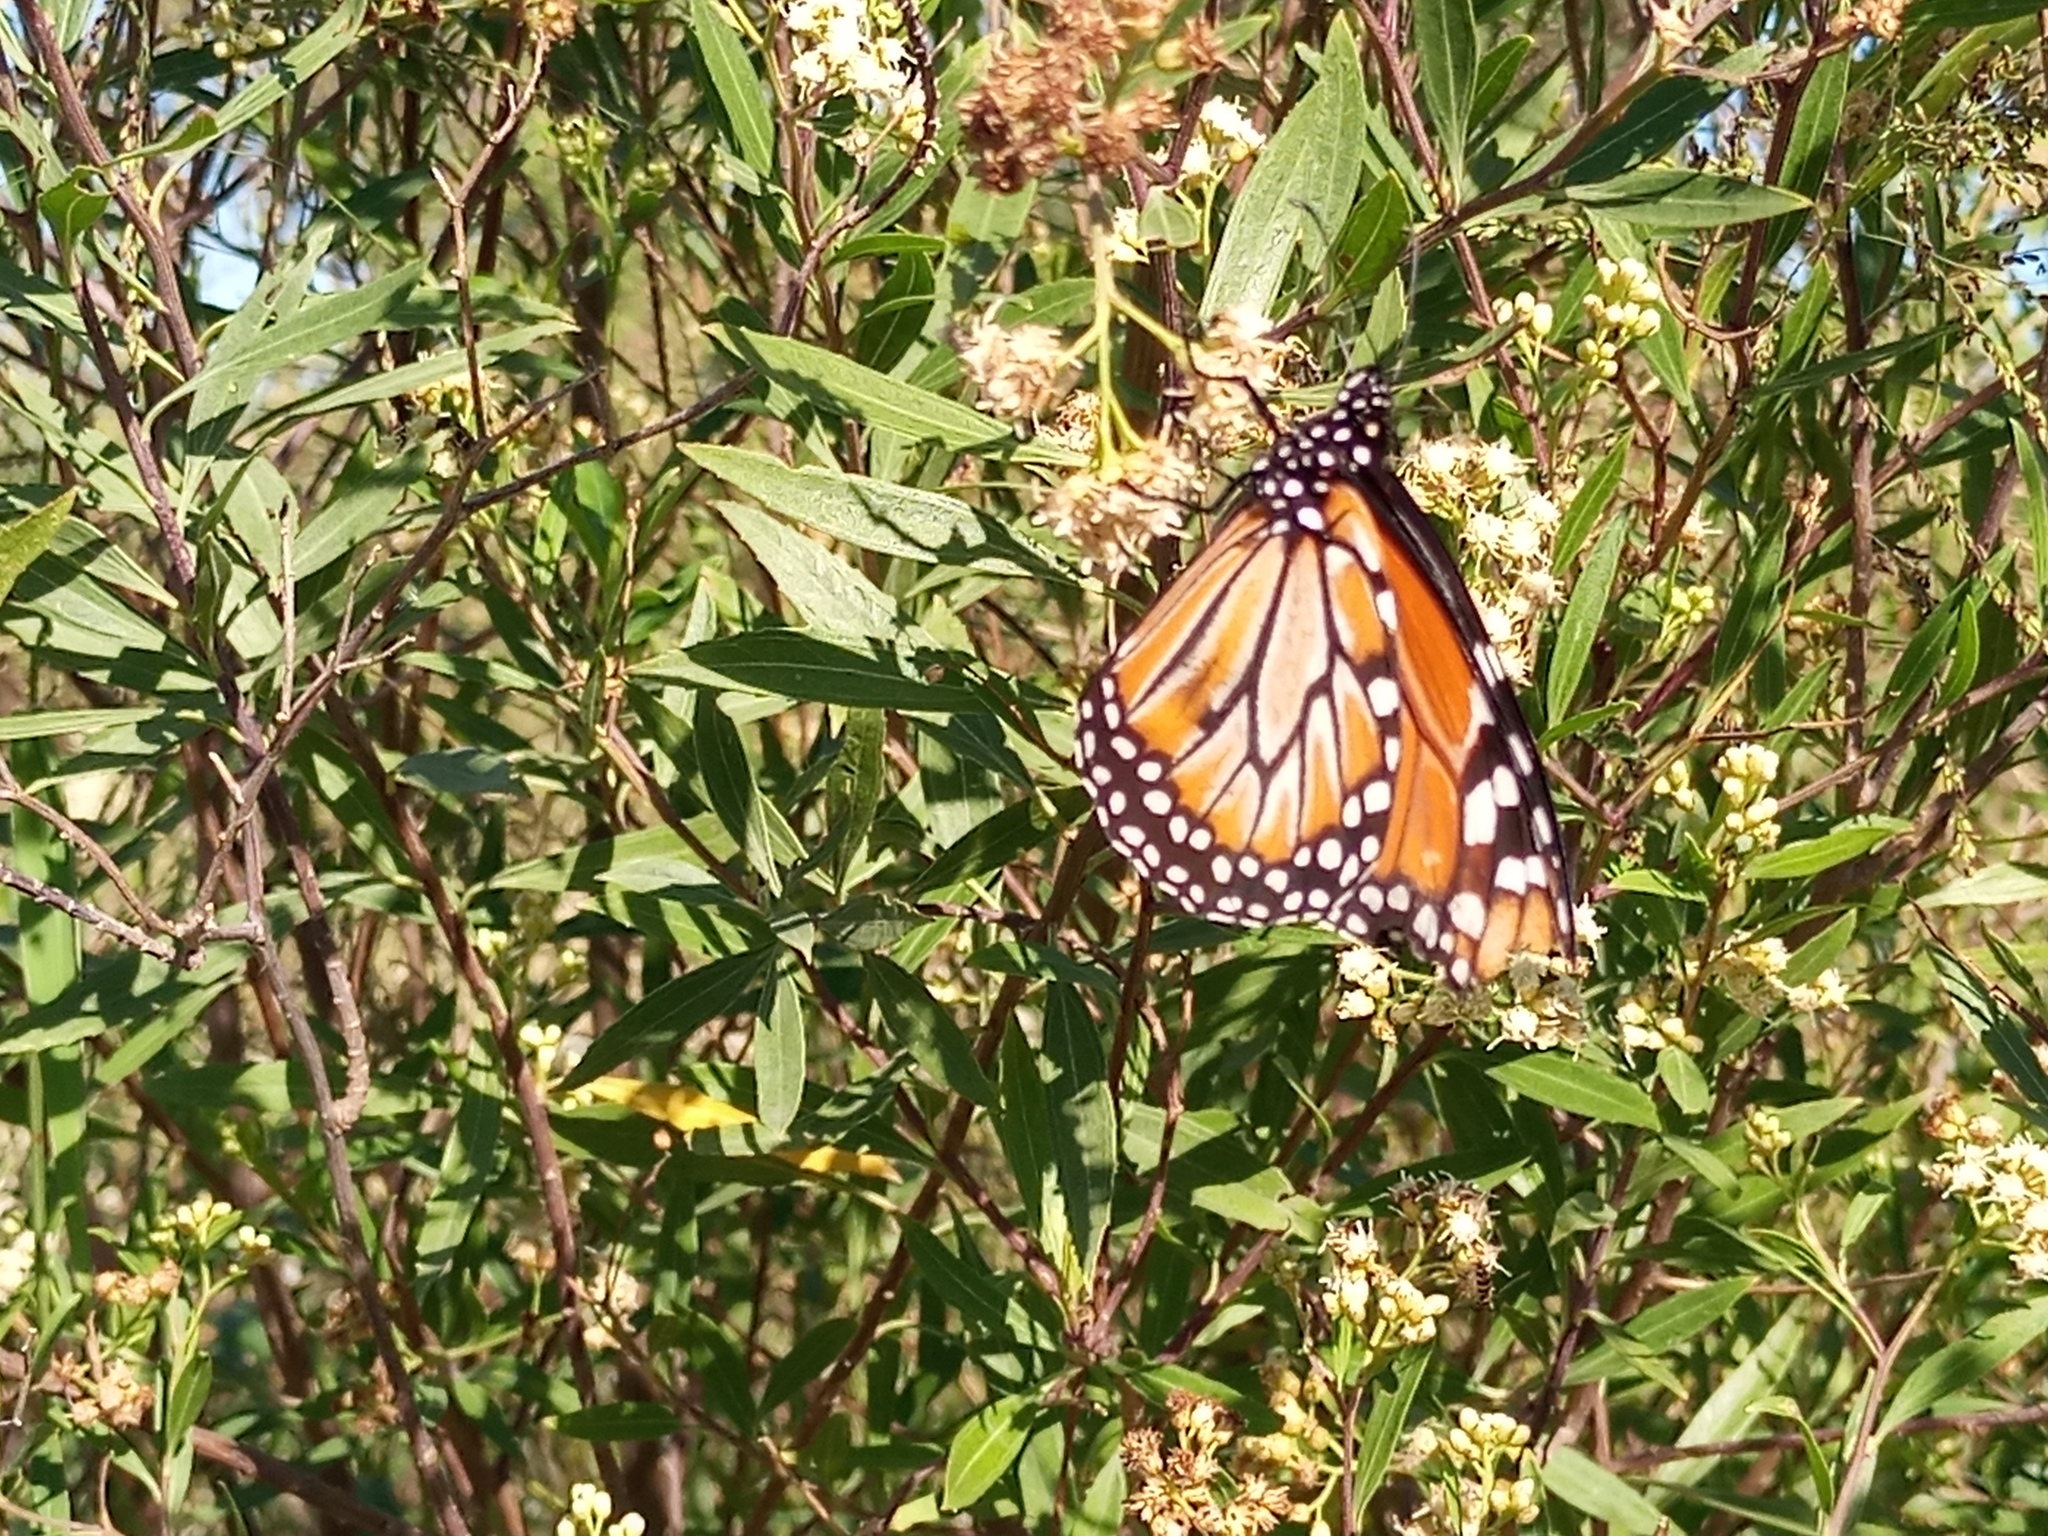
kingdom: Animalia
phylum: Arthropoda
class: Insecta
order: Lepidoptera
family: Nymphalidae
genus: Danaus
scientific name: Danaus erippus
